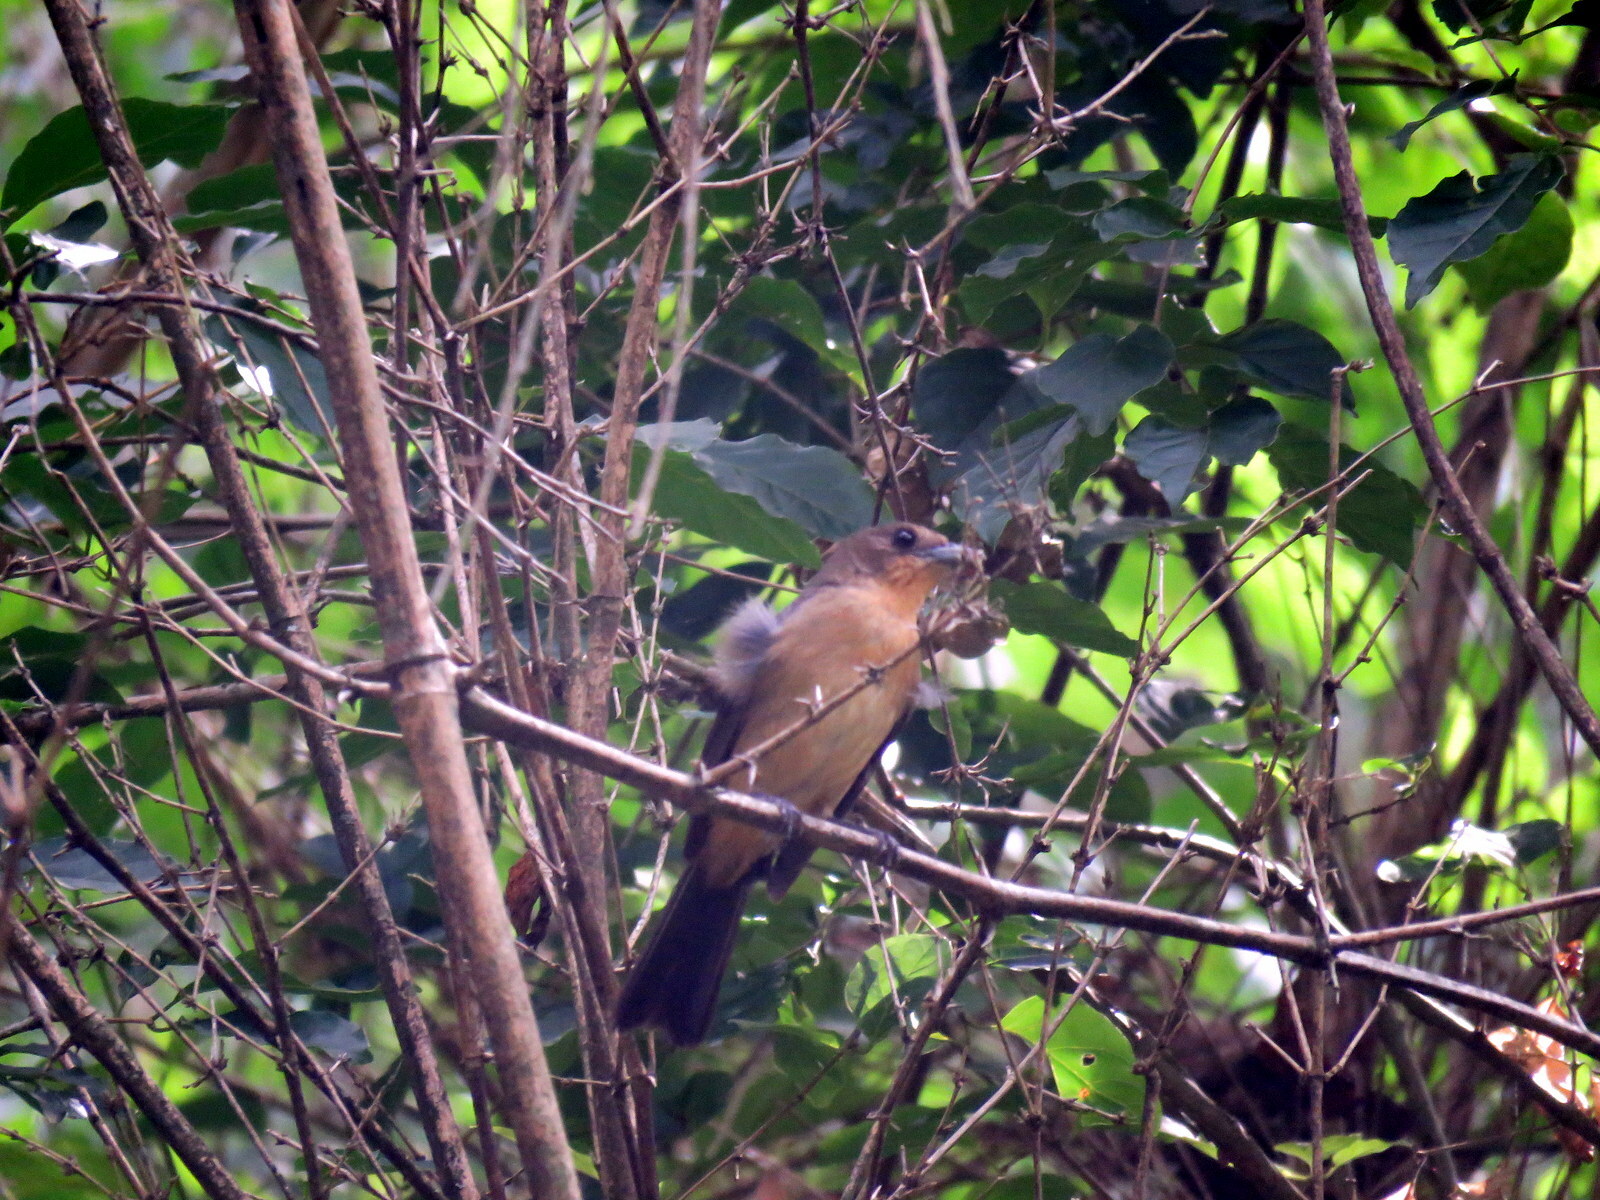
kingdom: Animalia
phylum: Chordata
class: Aves
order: Passeriformes
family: Thraupidae
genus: Trichothraupis
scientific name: Trichothraupis melanops
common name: Black-goggled tanager
